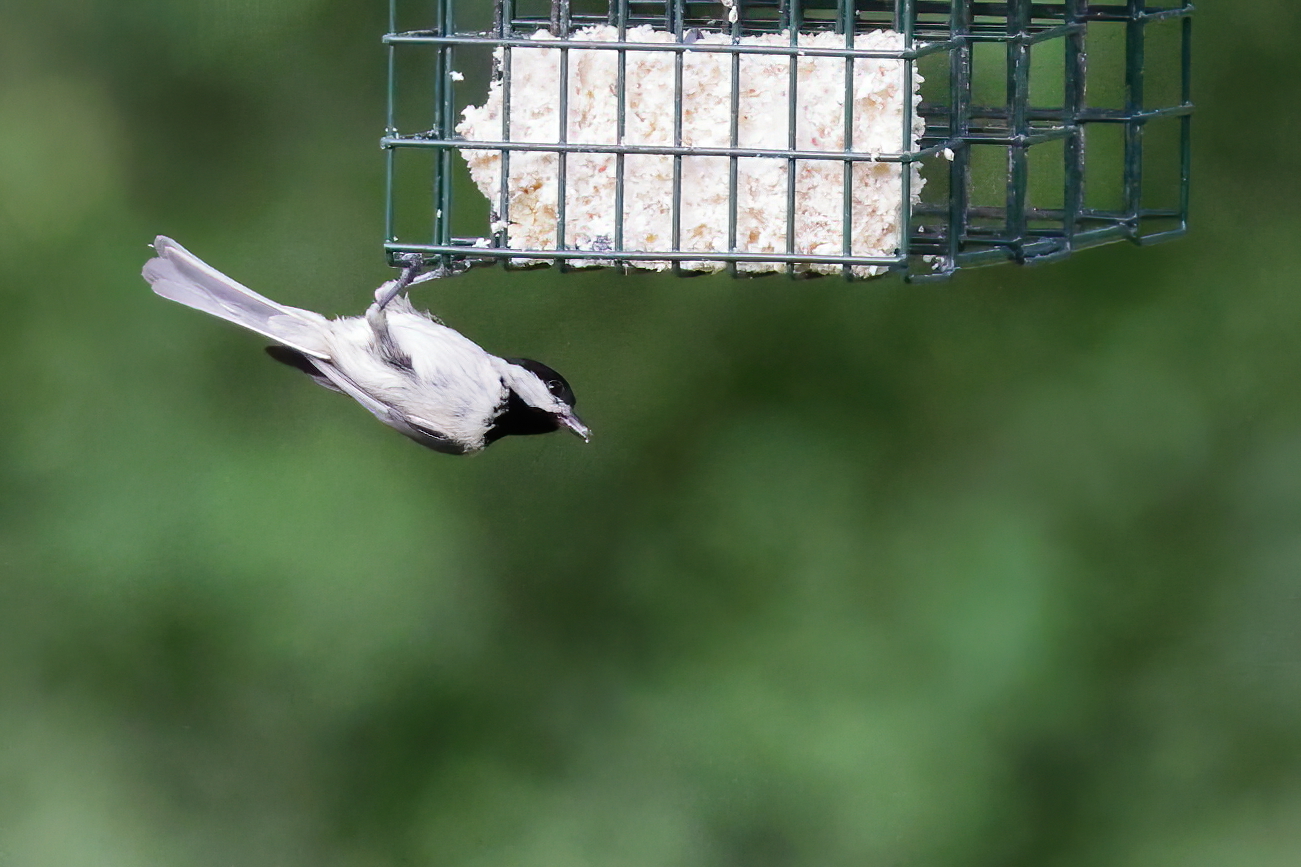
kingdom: Animalia
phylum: Chordata
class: Aves
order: Passeriformes
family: Paridae
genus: Poecile
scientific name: Poecile carolinensis
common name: Carolina chickadee
